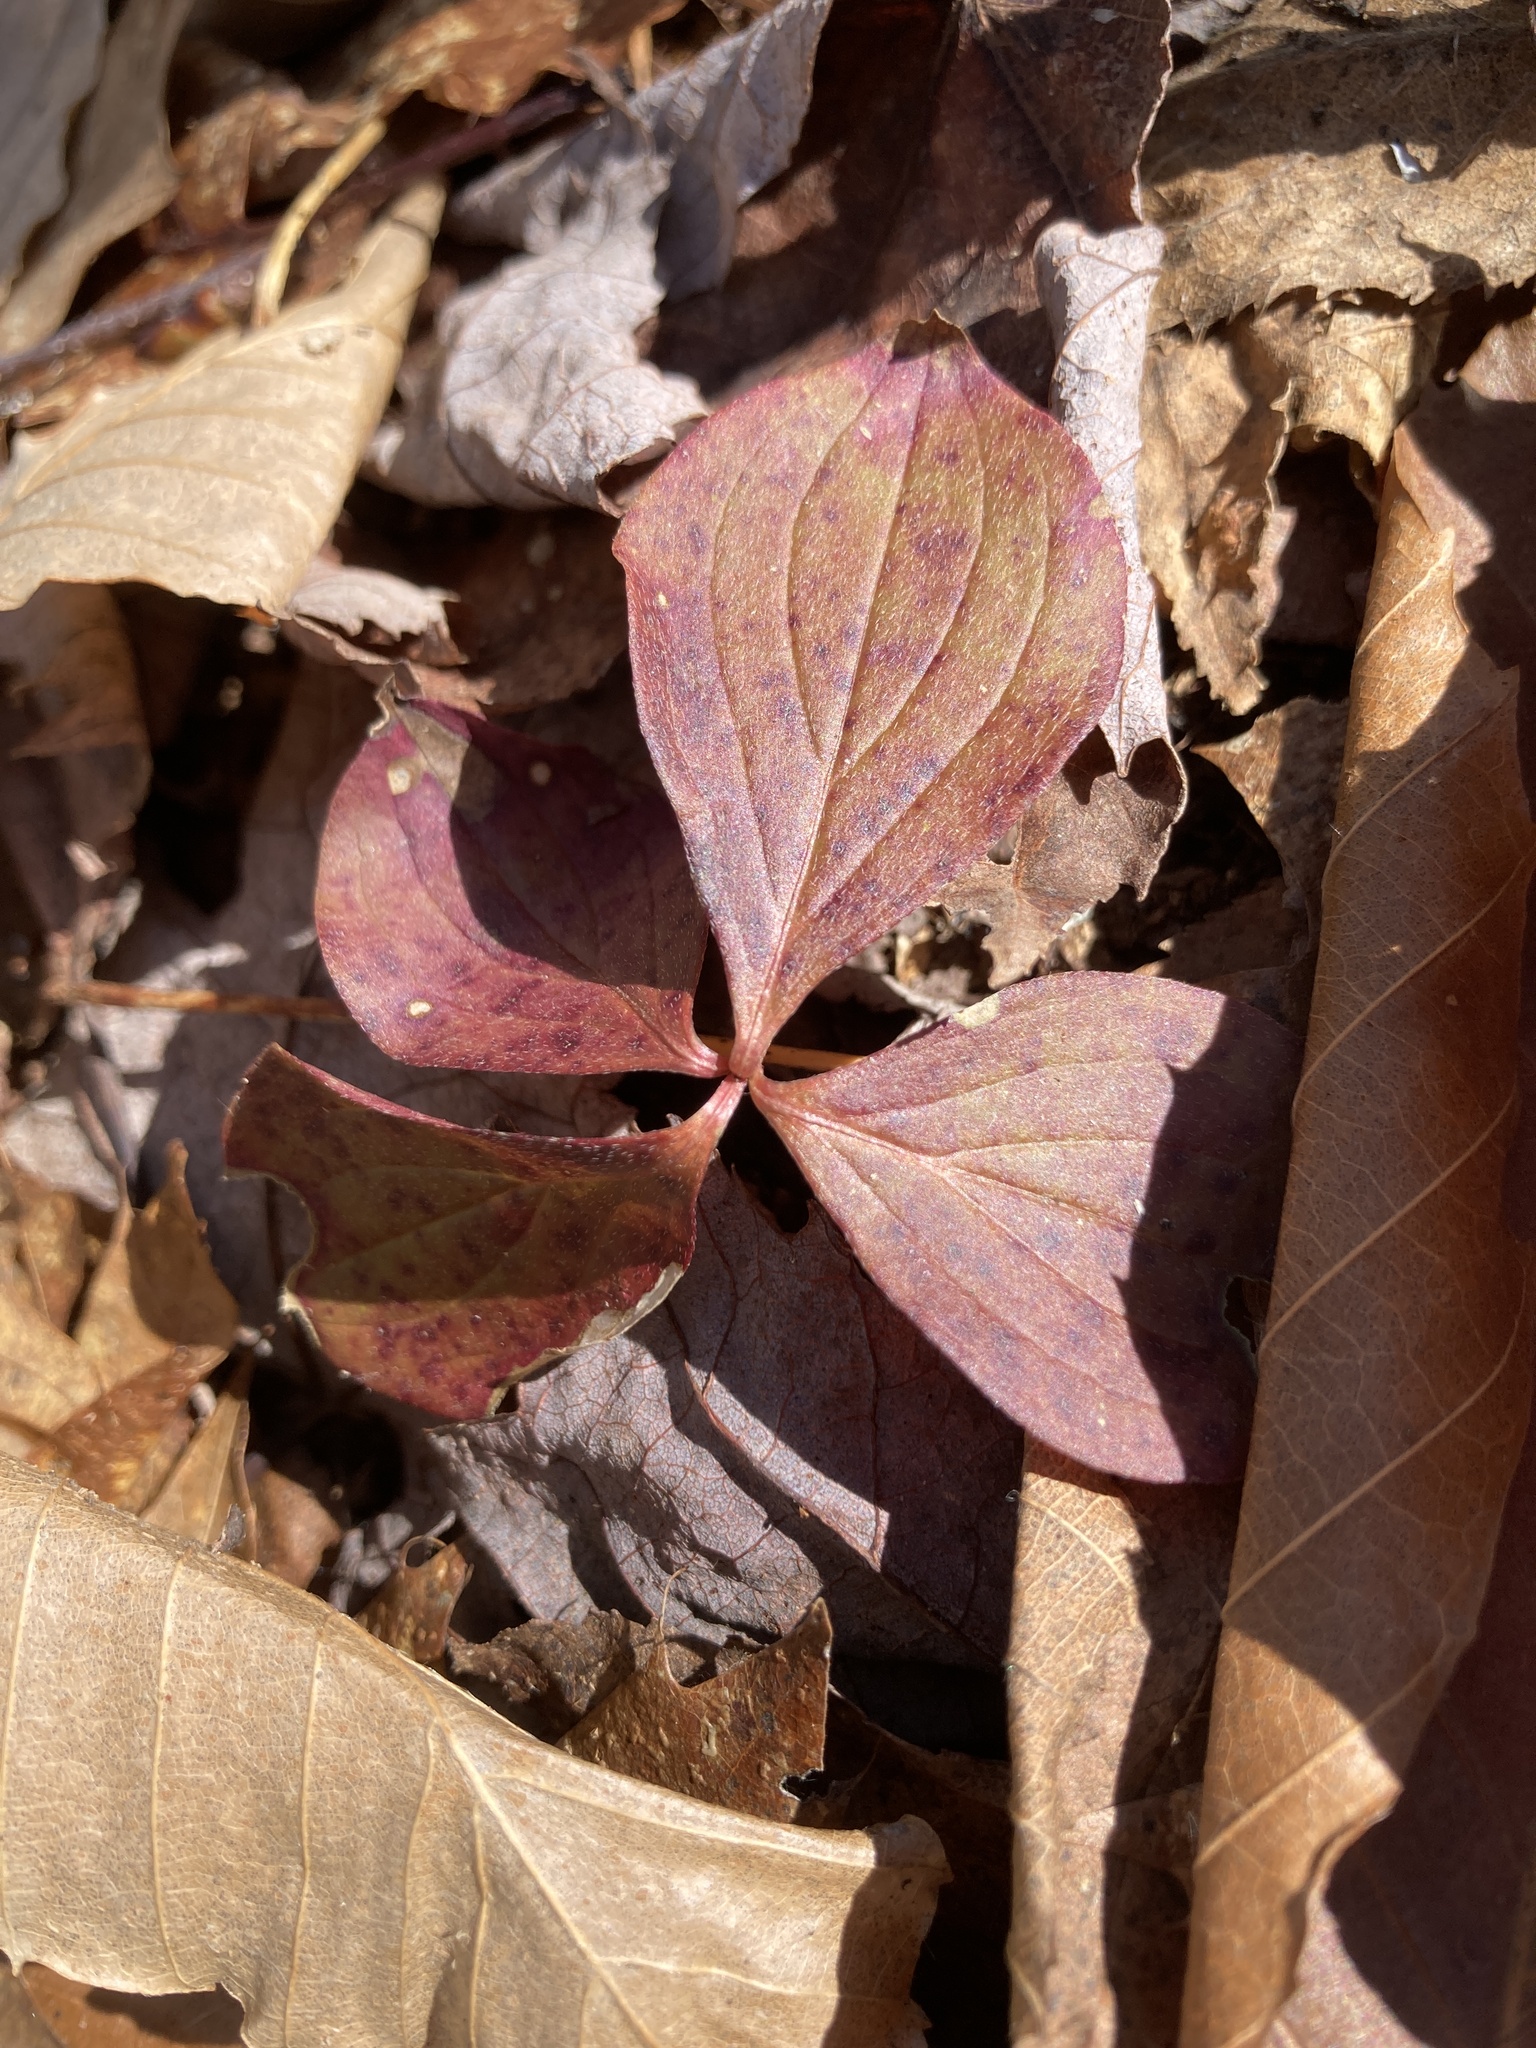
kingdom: Plantae
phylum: Tracheophyta
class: Magnoliopsida
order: Cornales
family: Cornaceae
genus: Cornus
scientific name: Cornus canadensis
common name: Creeping dogwood
